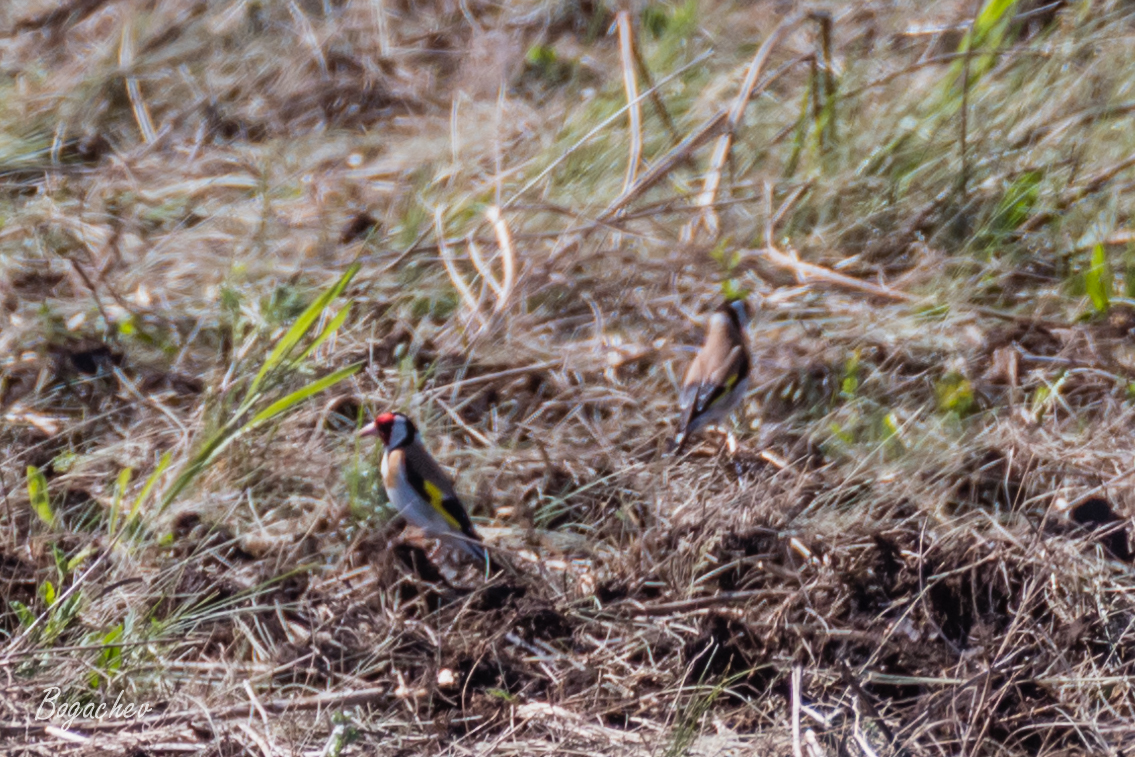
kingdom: Animalia
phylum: Chordata
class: Aves
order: Passeriformes
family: Fringillidae
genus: Carduelis
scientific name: Carduelis carduelis
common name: European goldfinch
